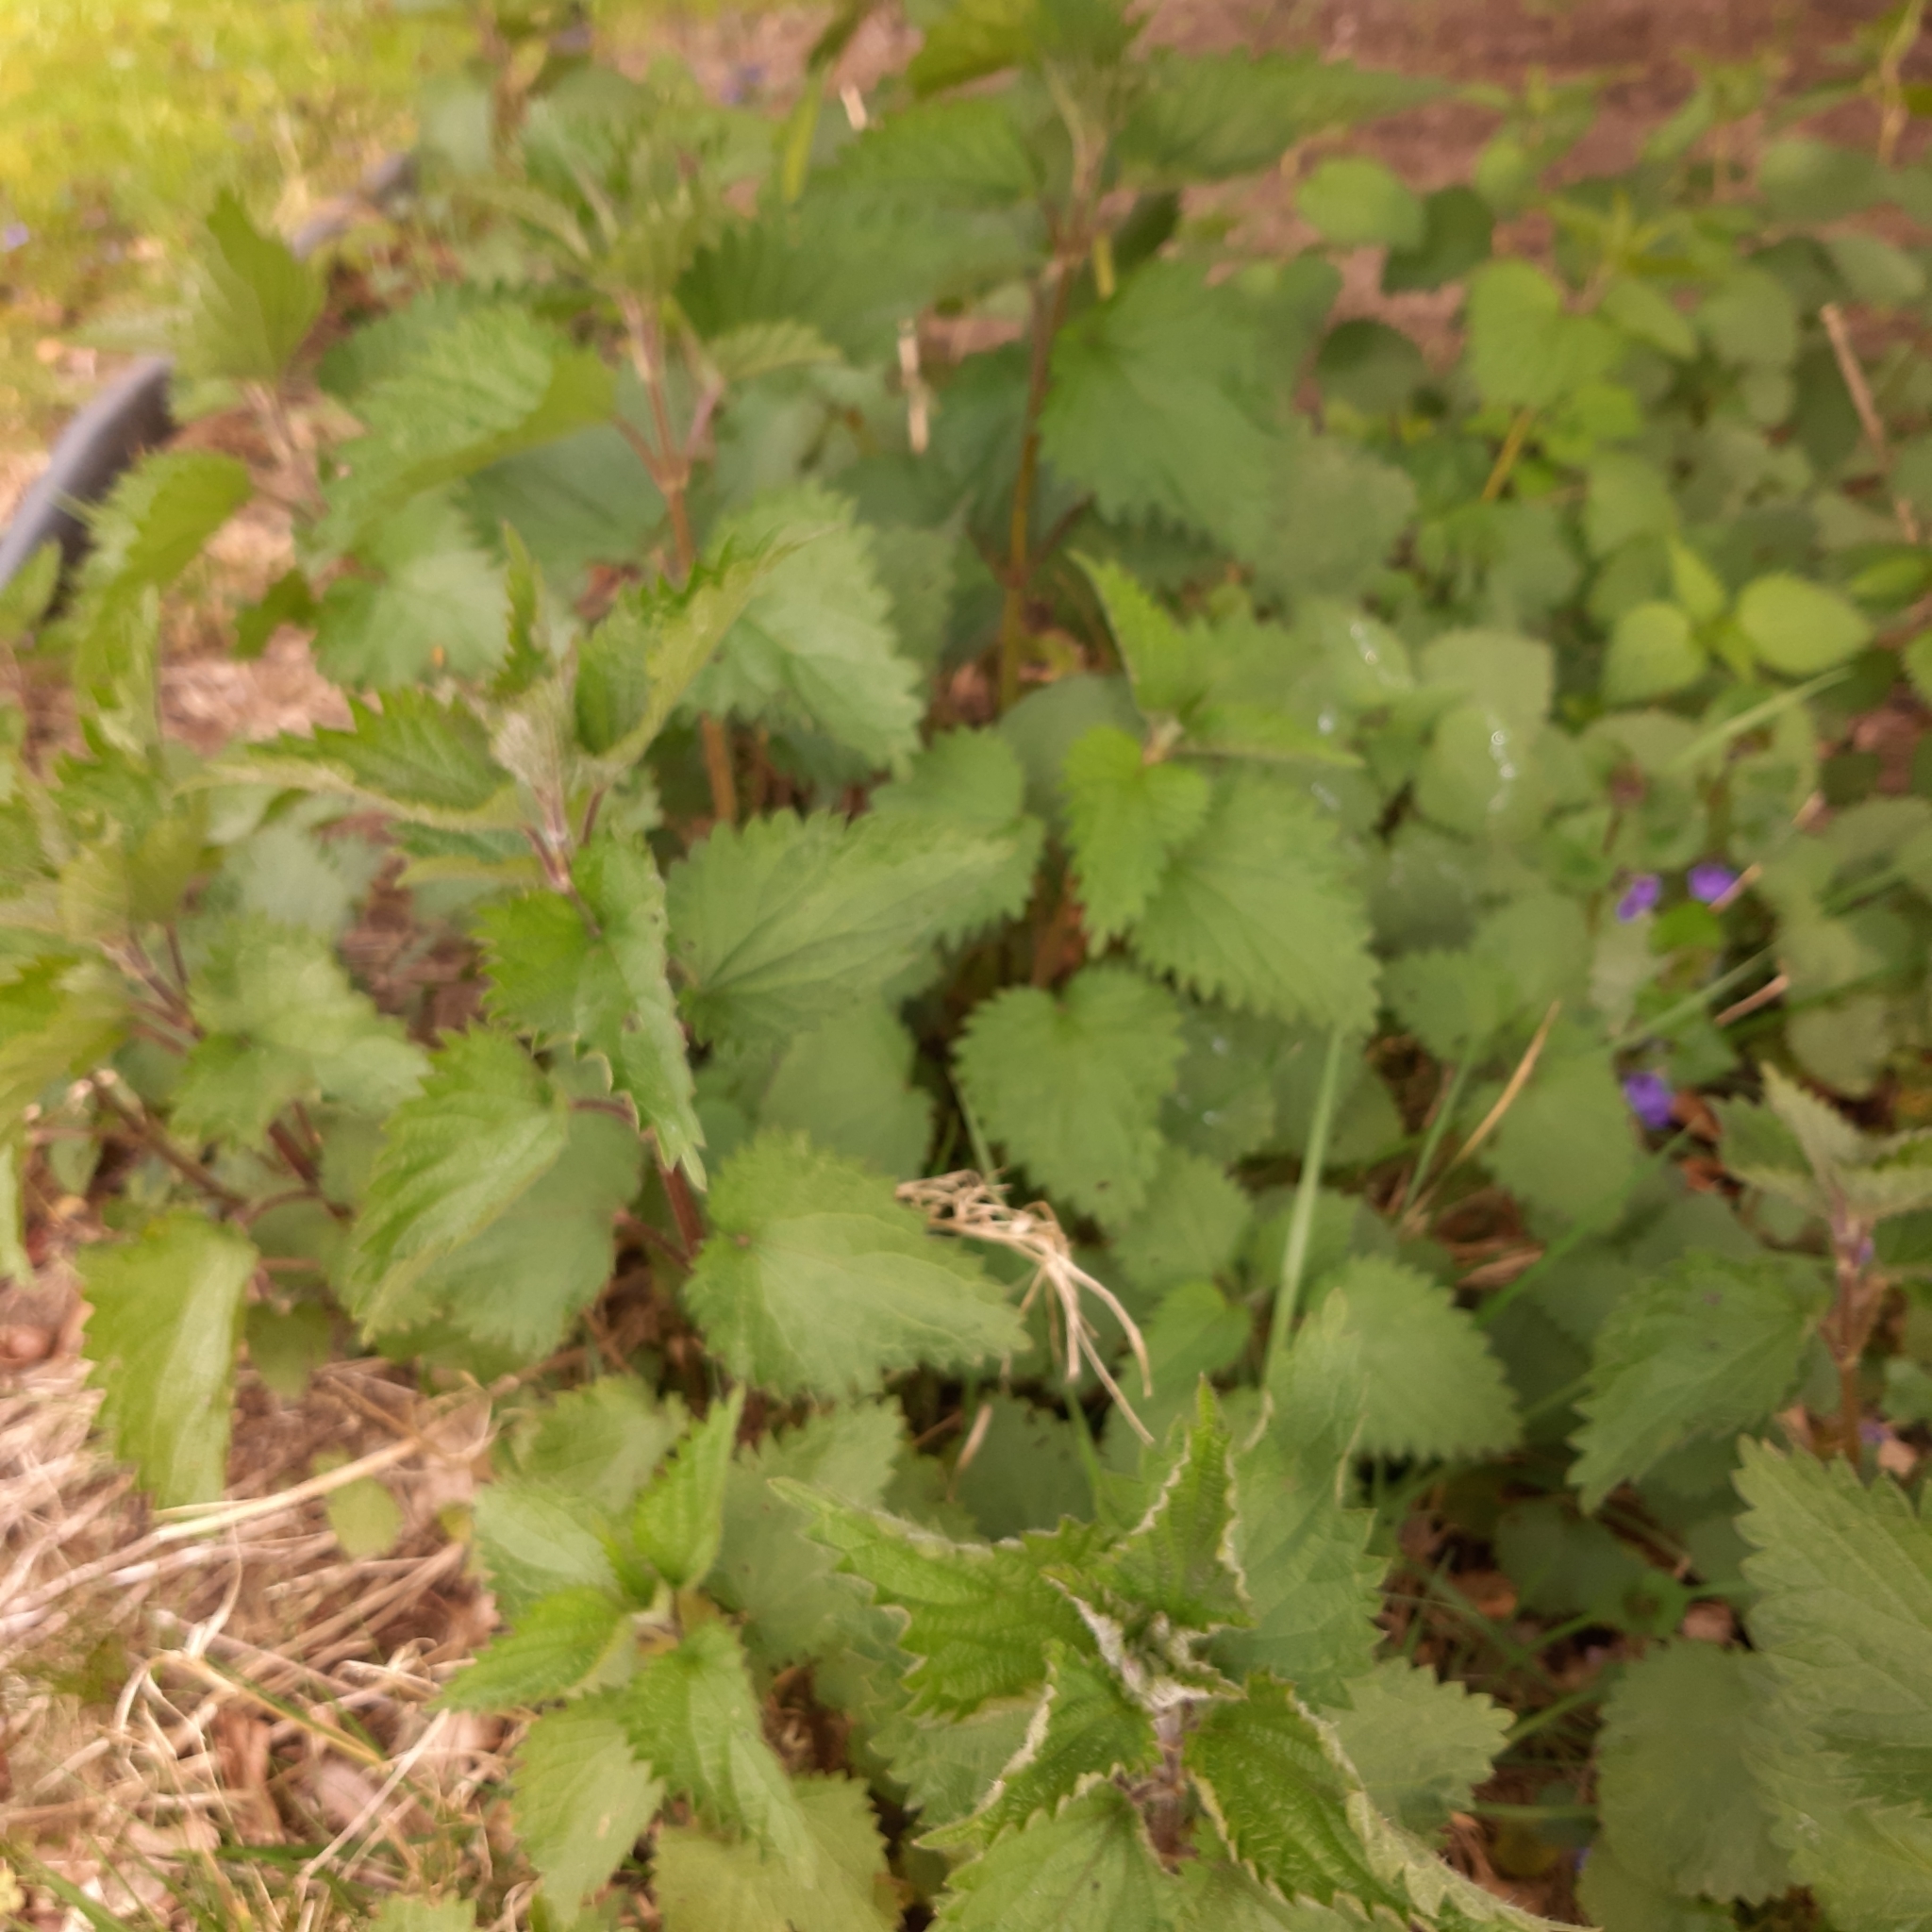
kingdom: Plantae
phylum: Tracheophyta
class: Magnoliopsida
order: Rosales
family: Urticaceae
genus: Urtica
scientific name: Urtica dioica
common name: Common nettle
